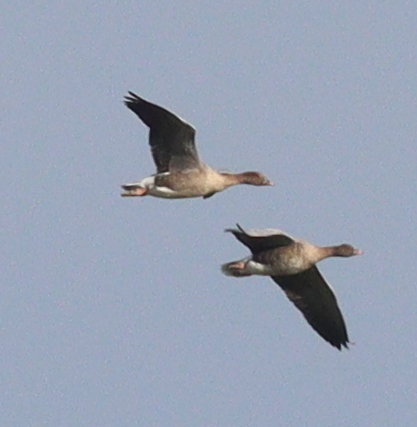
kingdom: Animalia
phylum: Chordata
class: Aves
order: Anseriformes
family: Anatidae
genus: Anser
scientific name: Anser serrirostris
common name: Tundra bean goose
